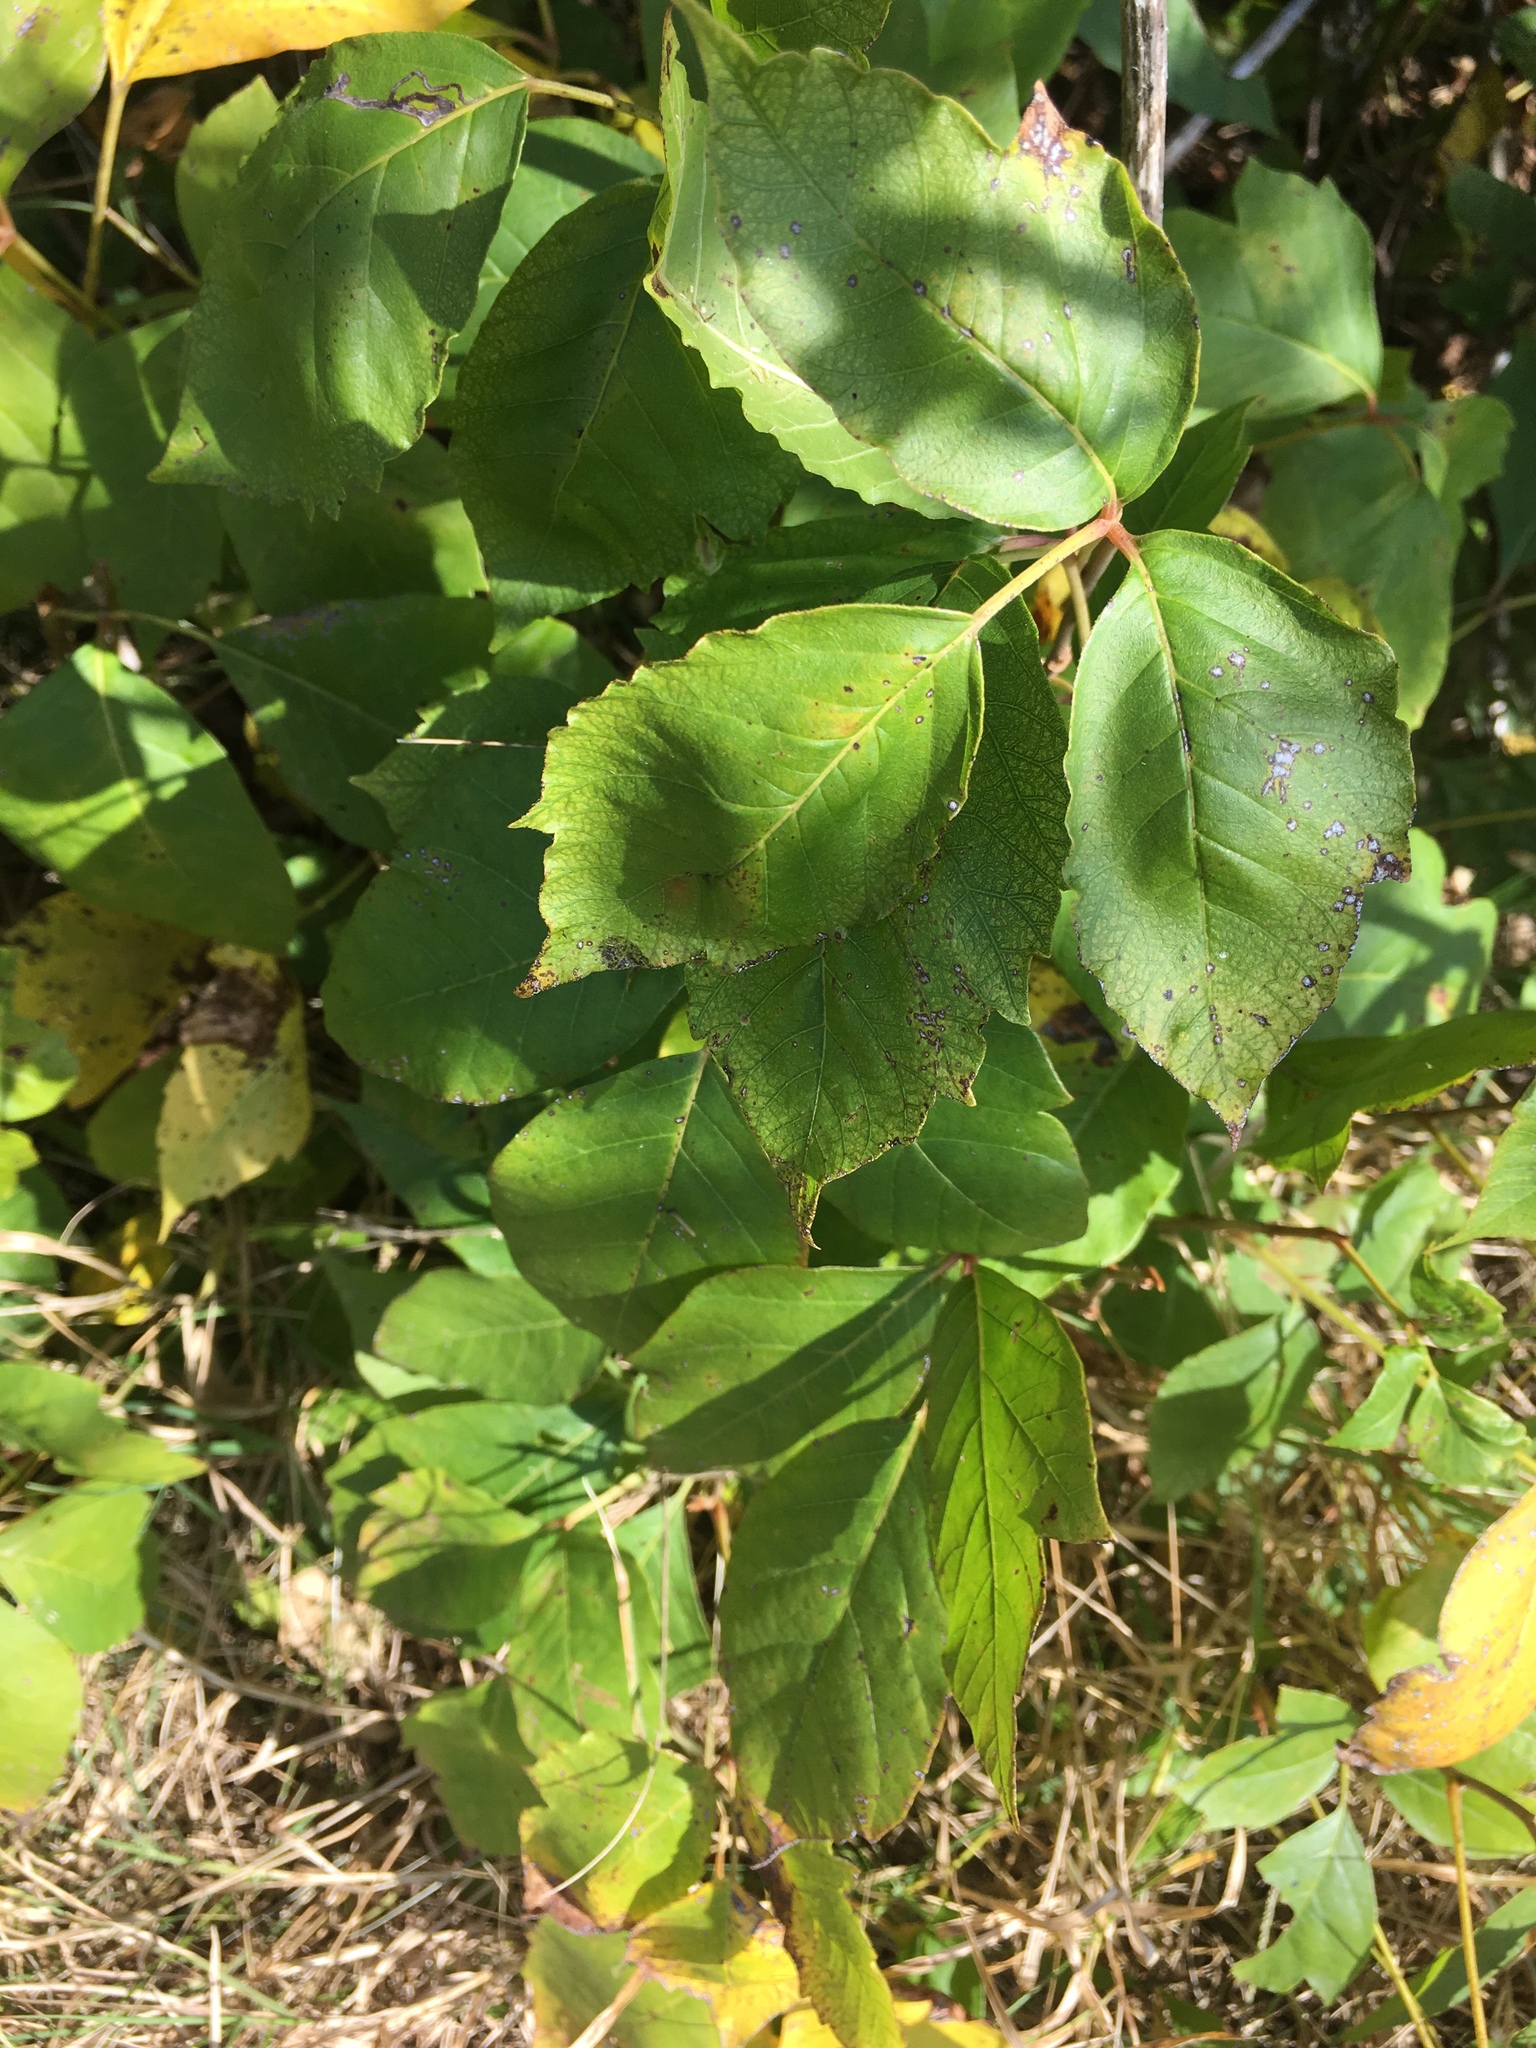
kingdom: Plantae
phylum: Tracheophyta
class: Magnoliopsida
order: Sapindales
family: Anacardiaceae
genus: Toxicodendron
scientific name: Toxicodendron radicans
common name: Poison ivy
